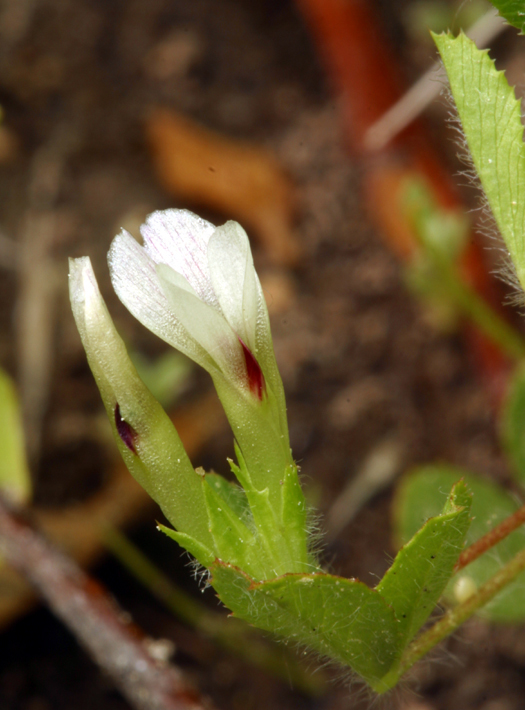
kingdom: Plantae
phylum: Tracheophyta
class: Magnoliopsida
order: Fabales
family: Fabaceae
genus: Trifolium
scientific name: Trifolium monanthum
